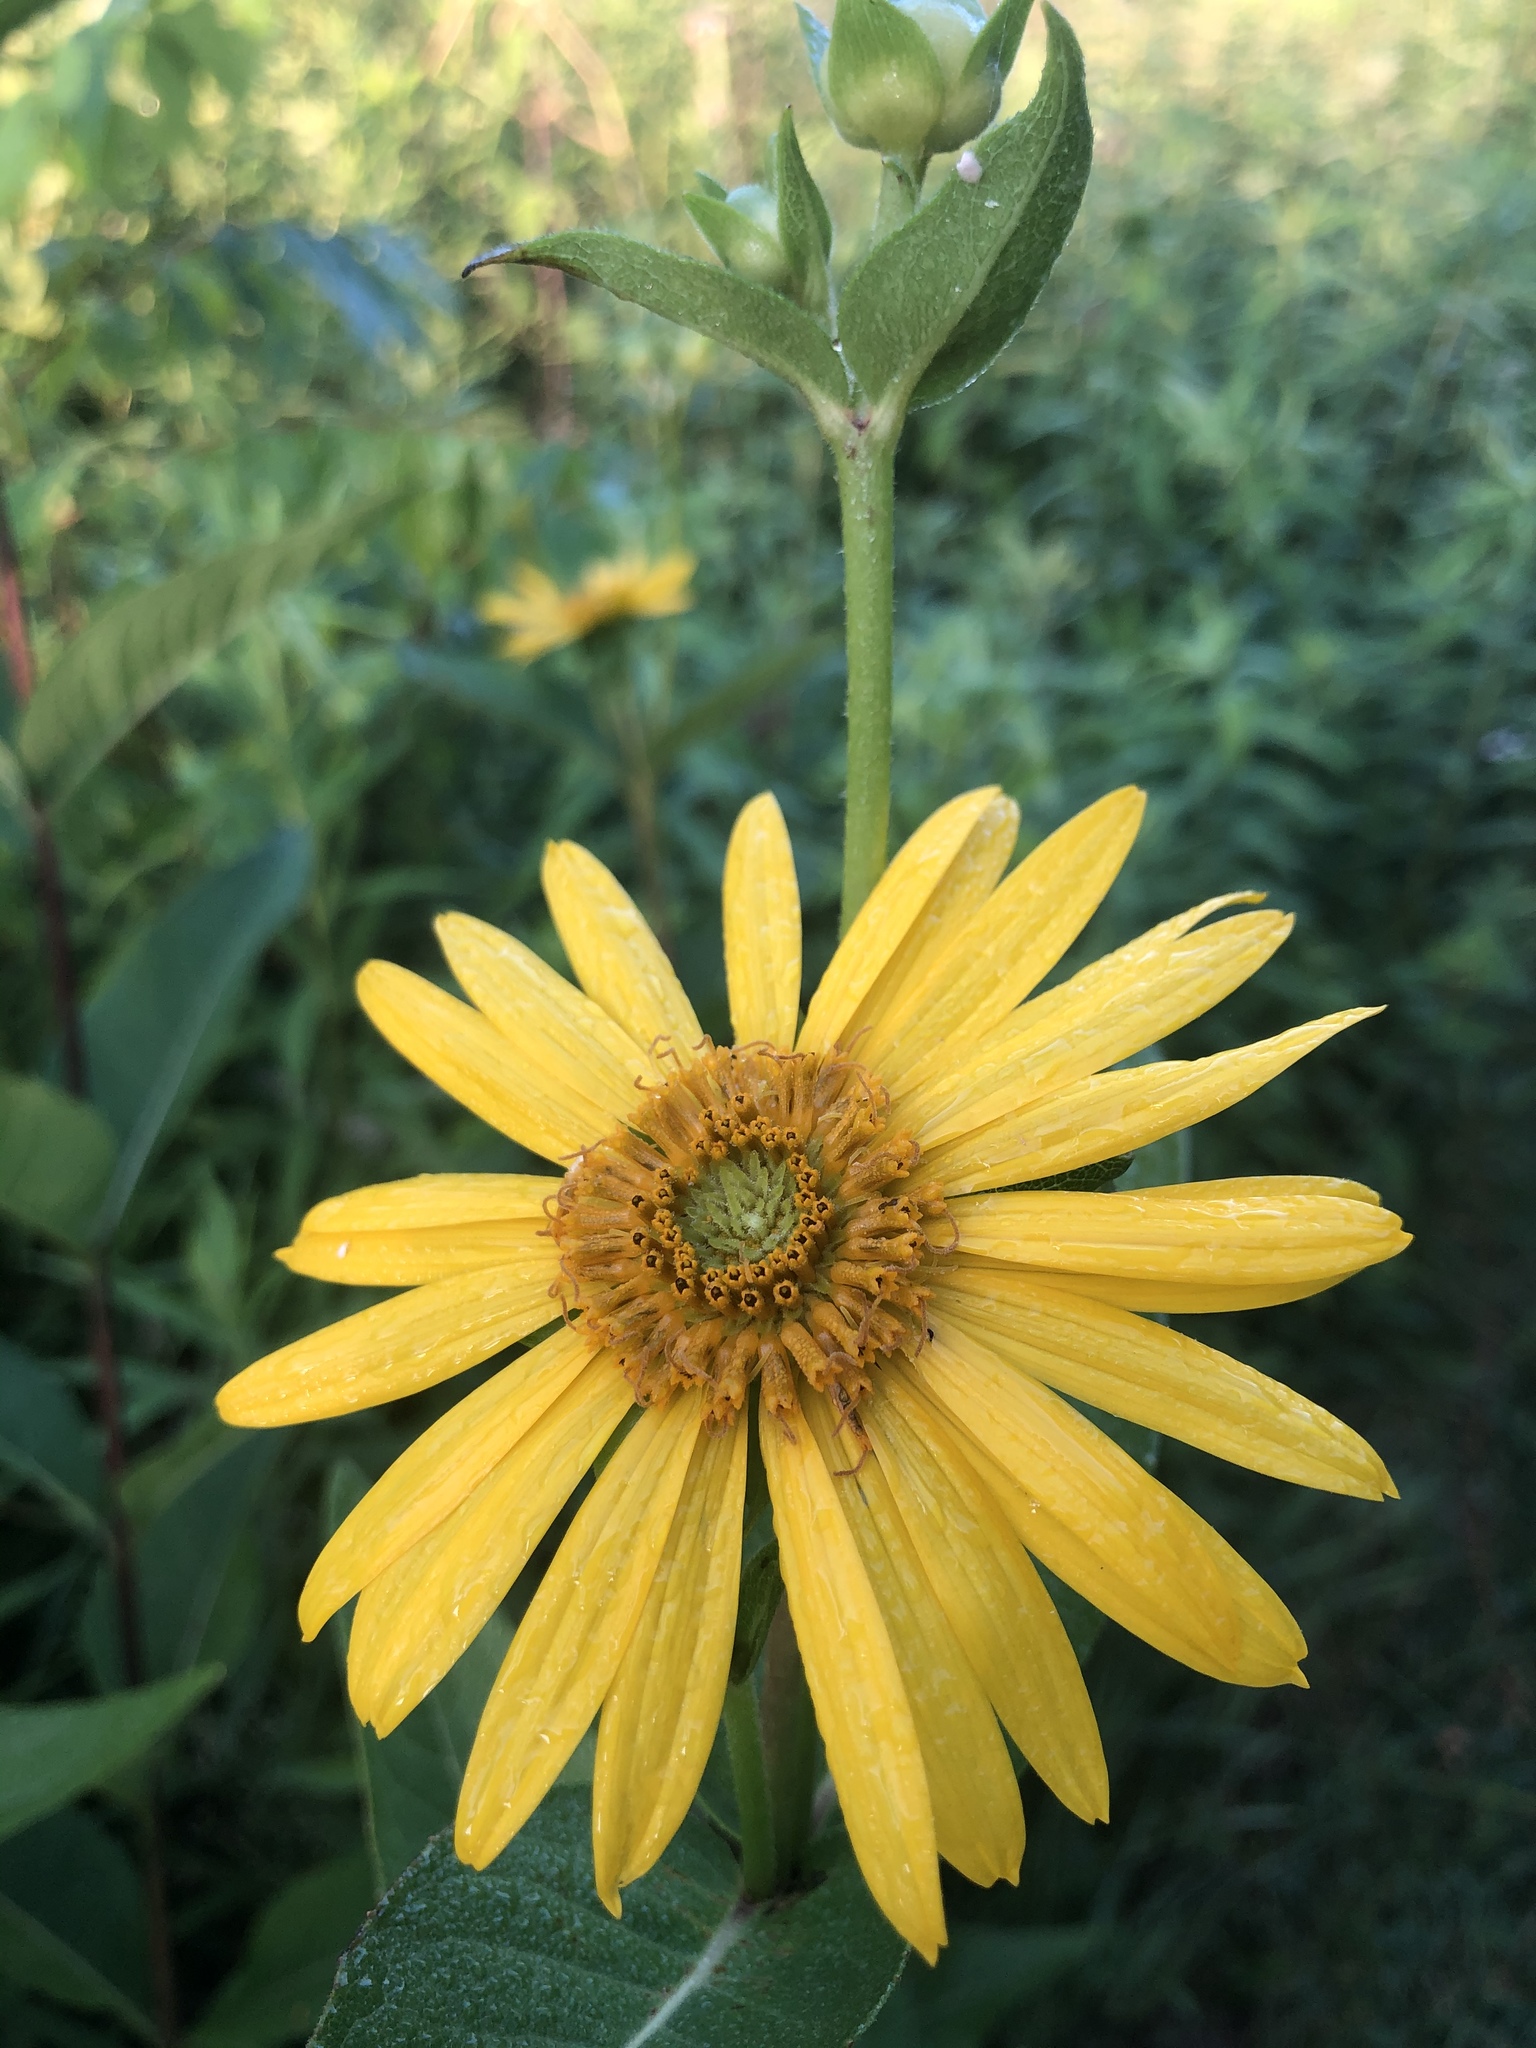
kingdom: Plantae
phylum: Tracheophyta
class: Magnoliopsida
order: Asterales
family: Asteraceae
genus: Silphium
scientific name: Silphium integrifolium
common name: Whole-leaf rosinweed
